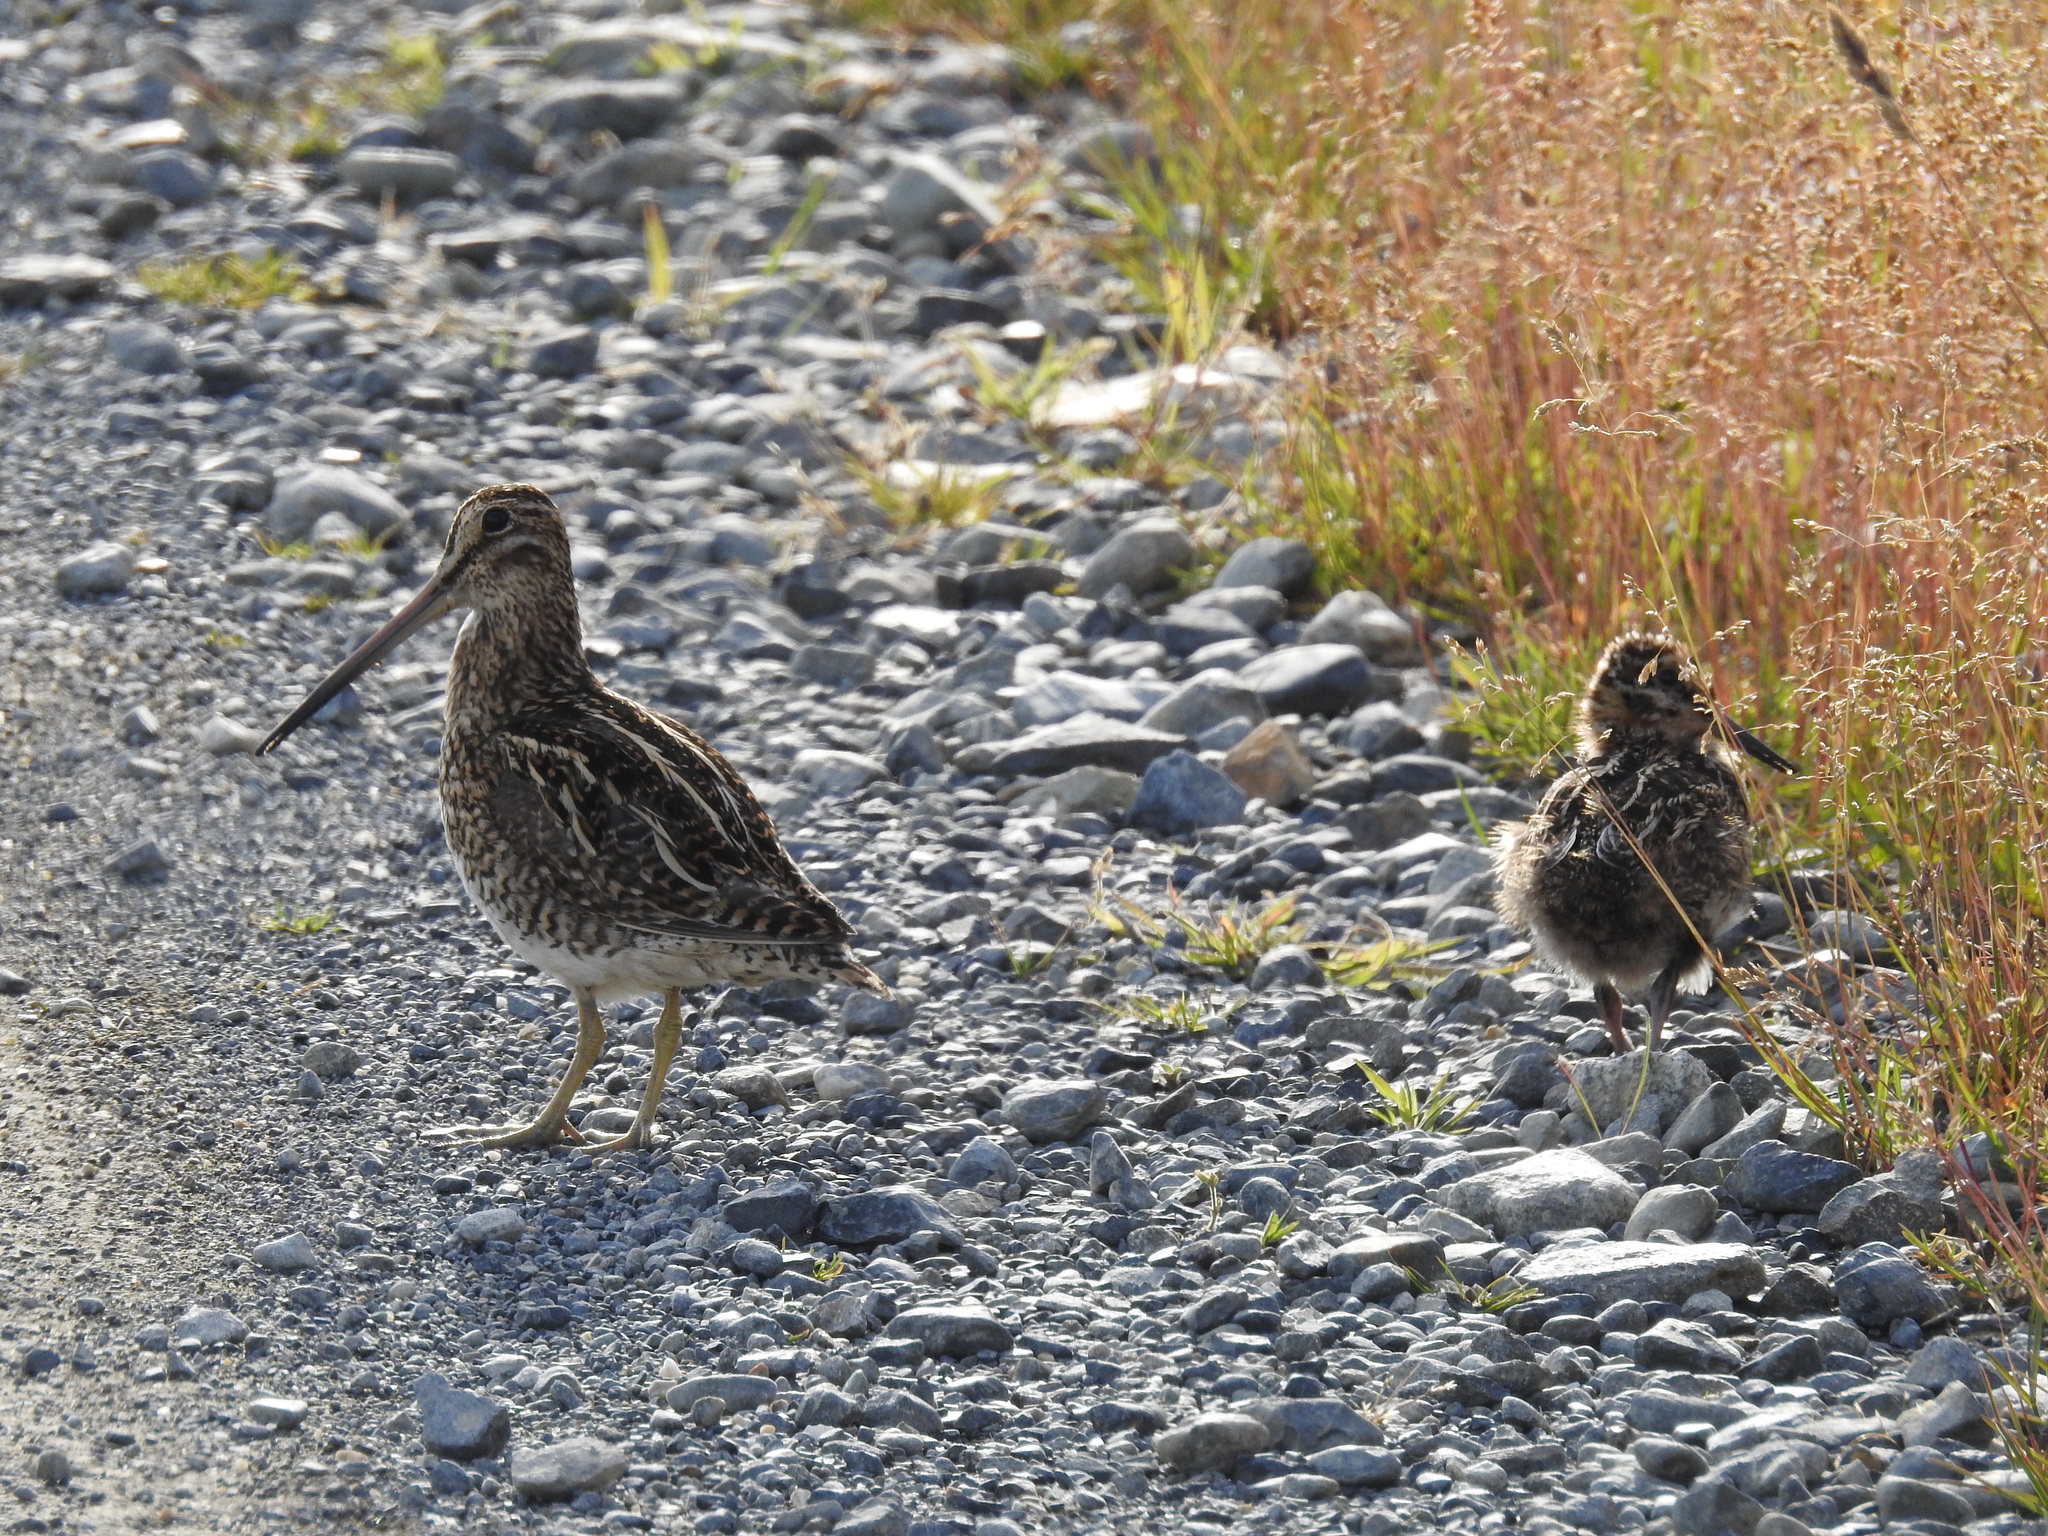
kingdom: Animalia
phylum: Chordata
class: Aves
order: Charadriiformes
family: Scolopacidae
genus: Gallinago
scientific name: Gallinago magellanica
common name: Magellanic snipe
